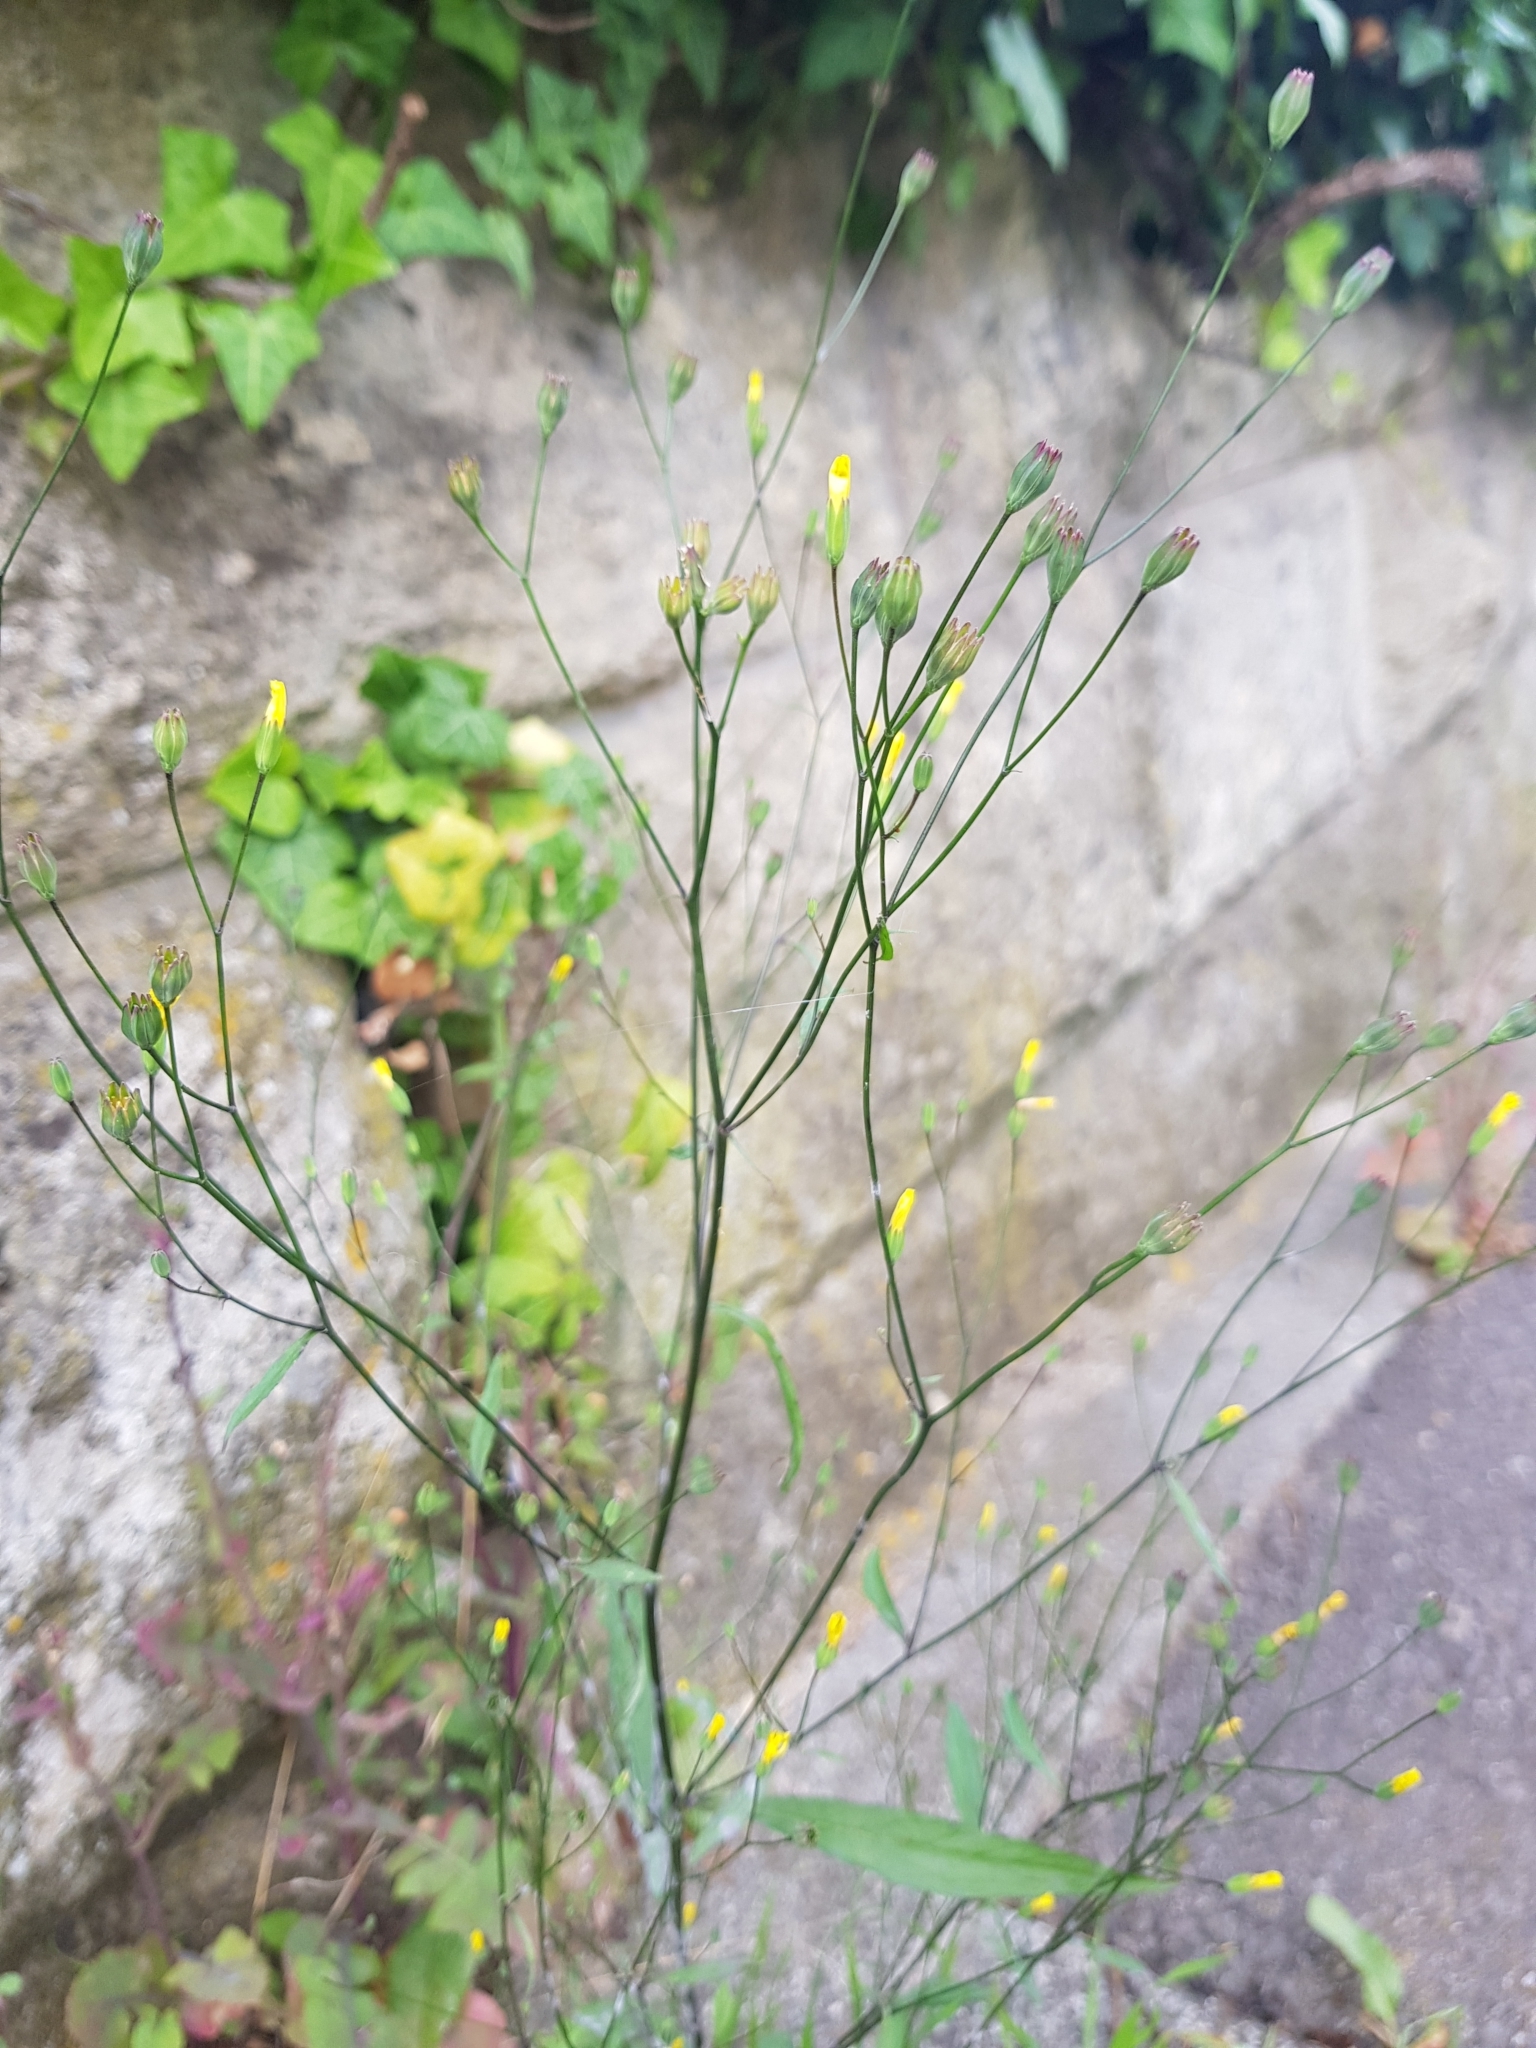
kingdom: Plantae
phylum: Tracheophyta
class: Magnoliopsida
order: Asterales
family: Asteraceae
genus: Lapsana
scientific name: Lapsana communis
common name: Nipplewort
